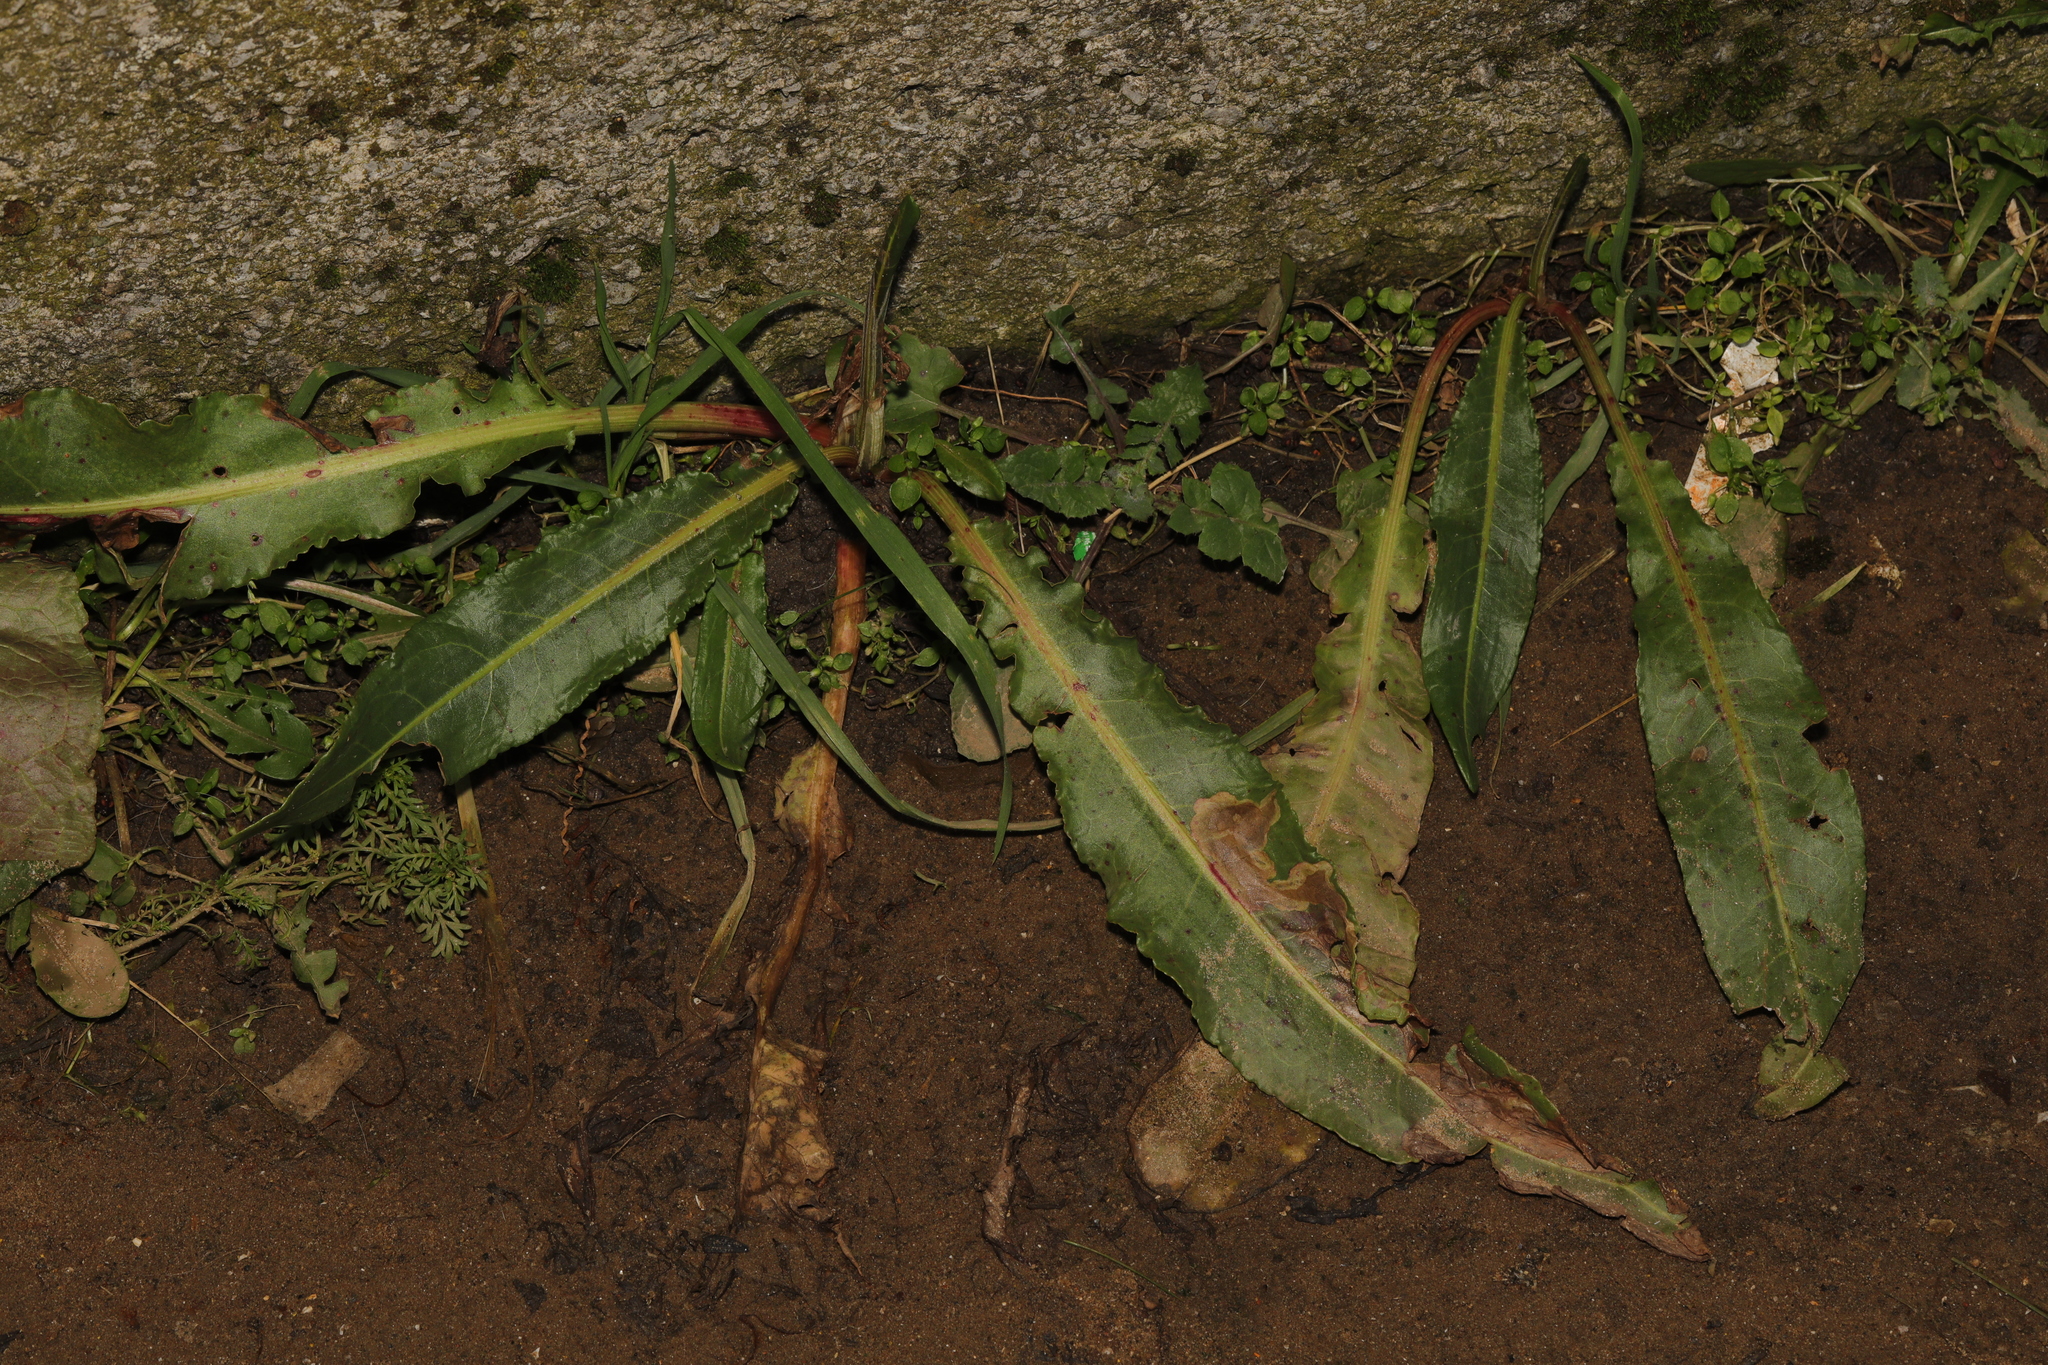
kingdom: Plantae
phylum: Tracheophyta
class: Magnoliopsida
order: Caryophyllales
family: Polygonaceae
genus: Rumex
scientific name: Rumex crispus
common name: Curled dock
